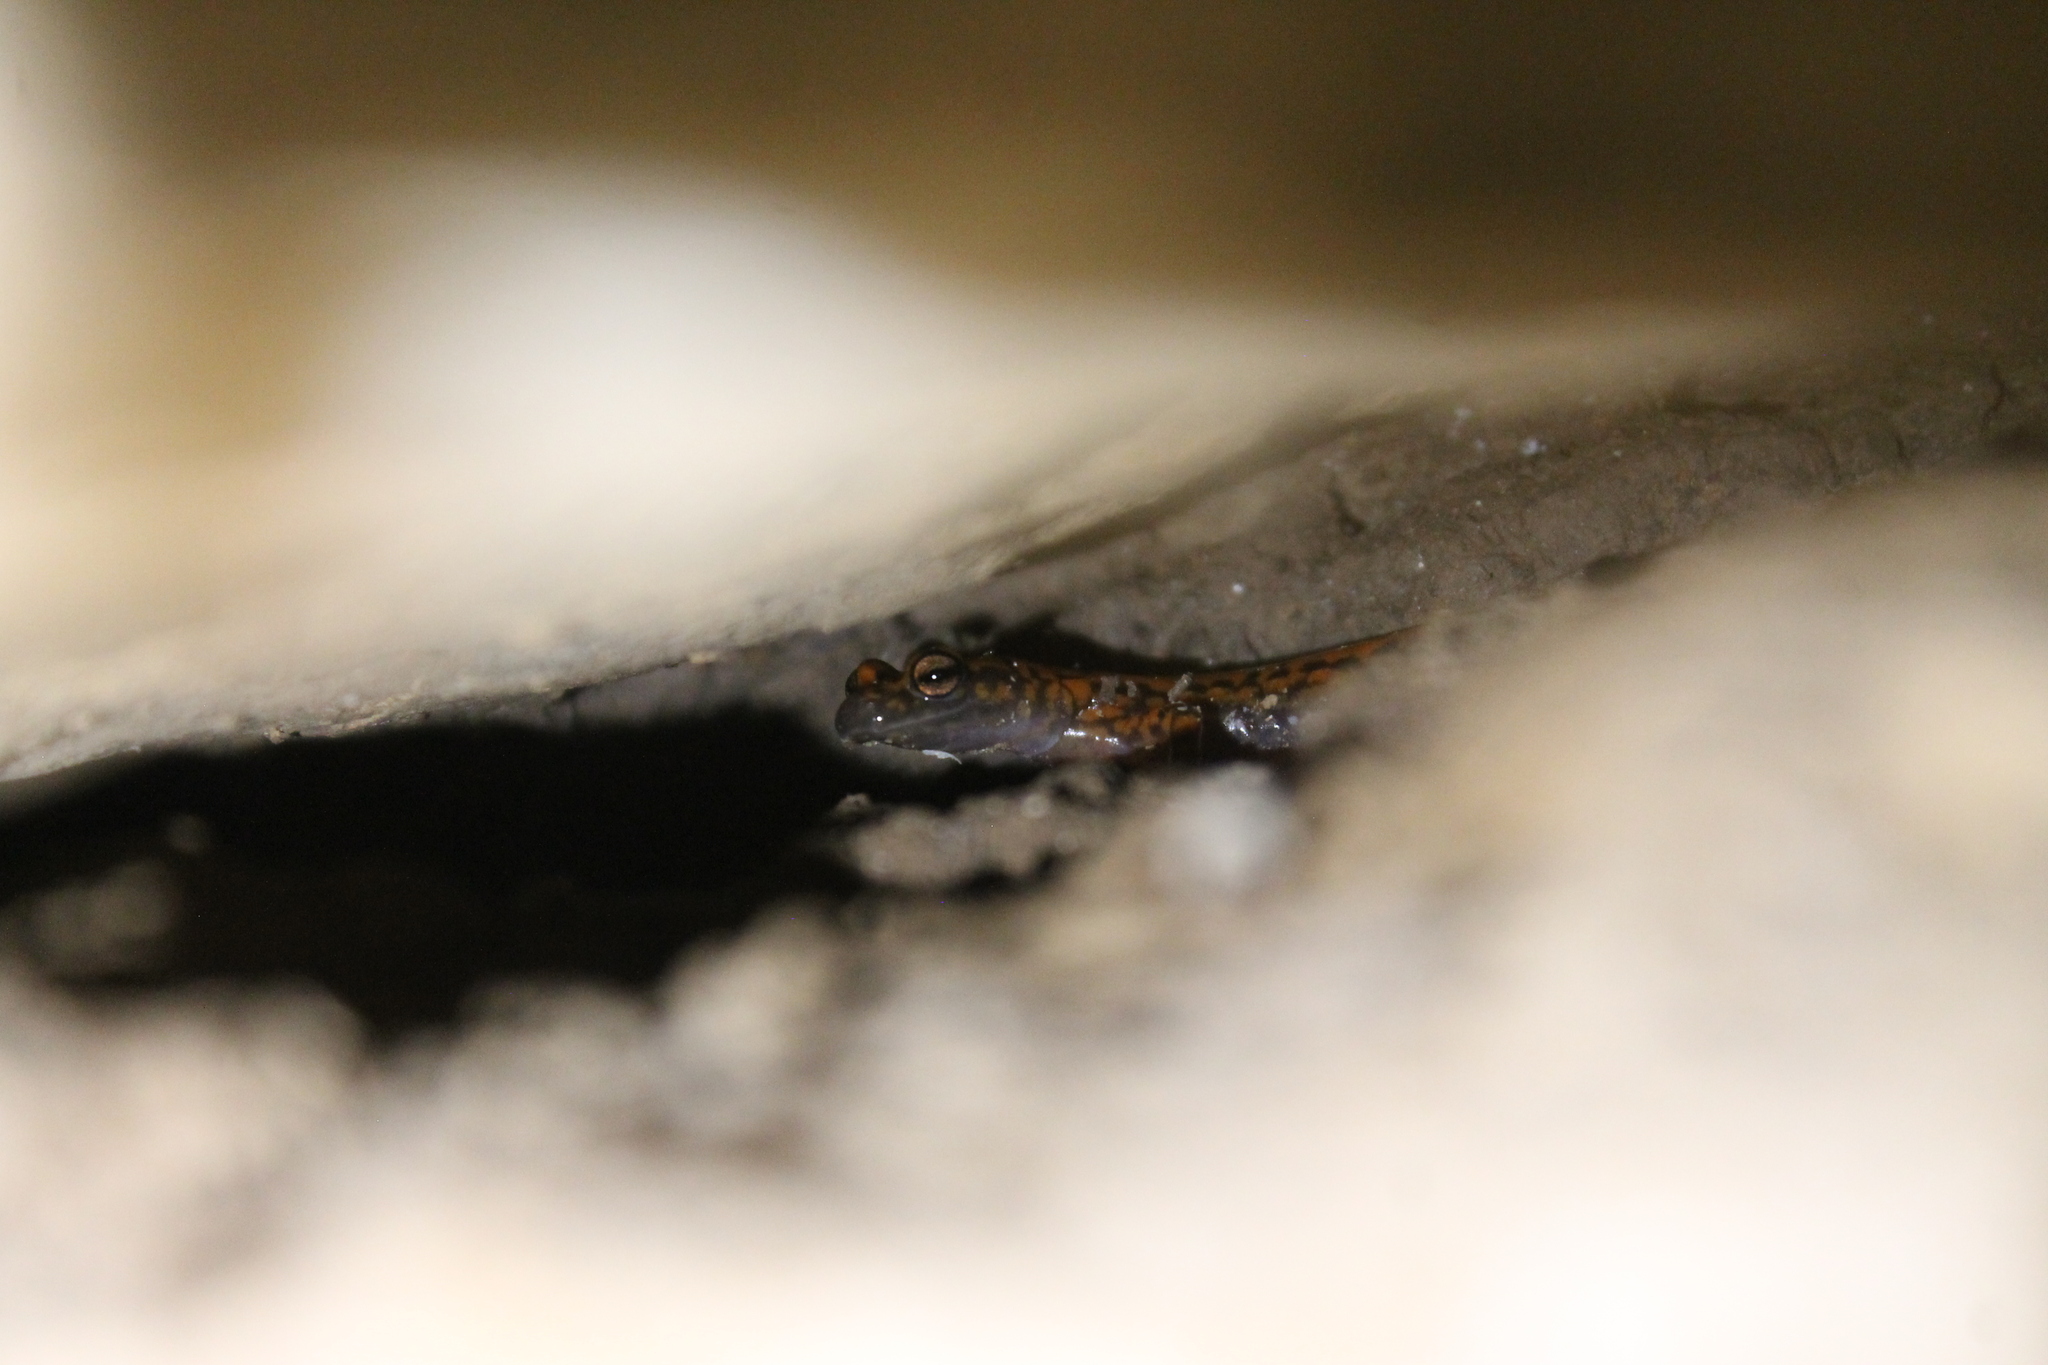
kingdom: Animalia
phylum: Chordata
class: Amphibia
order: Caudata
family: Plethodontidae
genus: Eurycea
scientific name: Eurycea lucifuga
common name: Cave salamander
